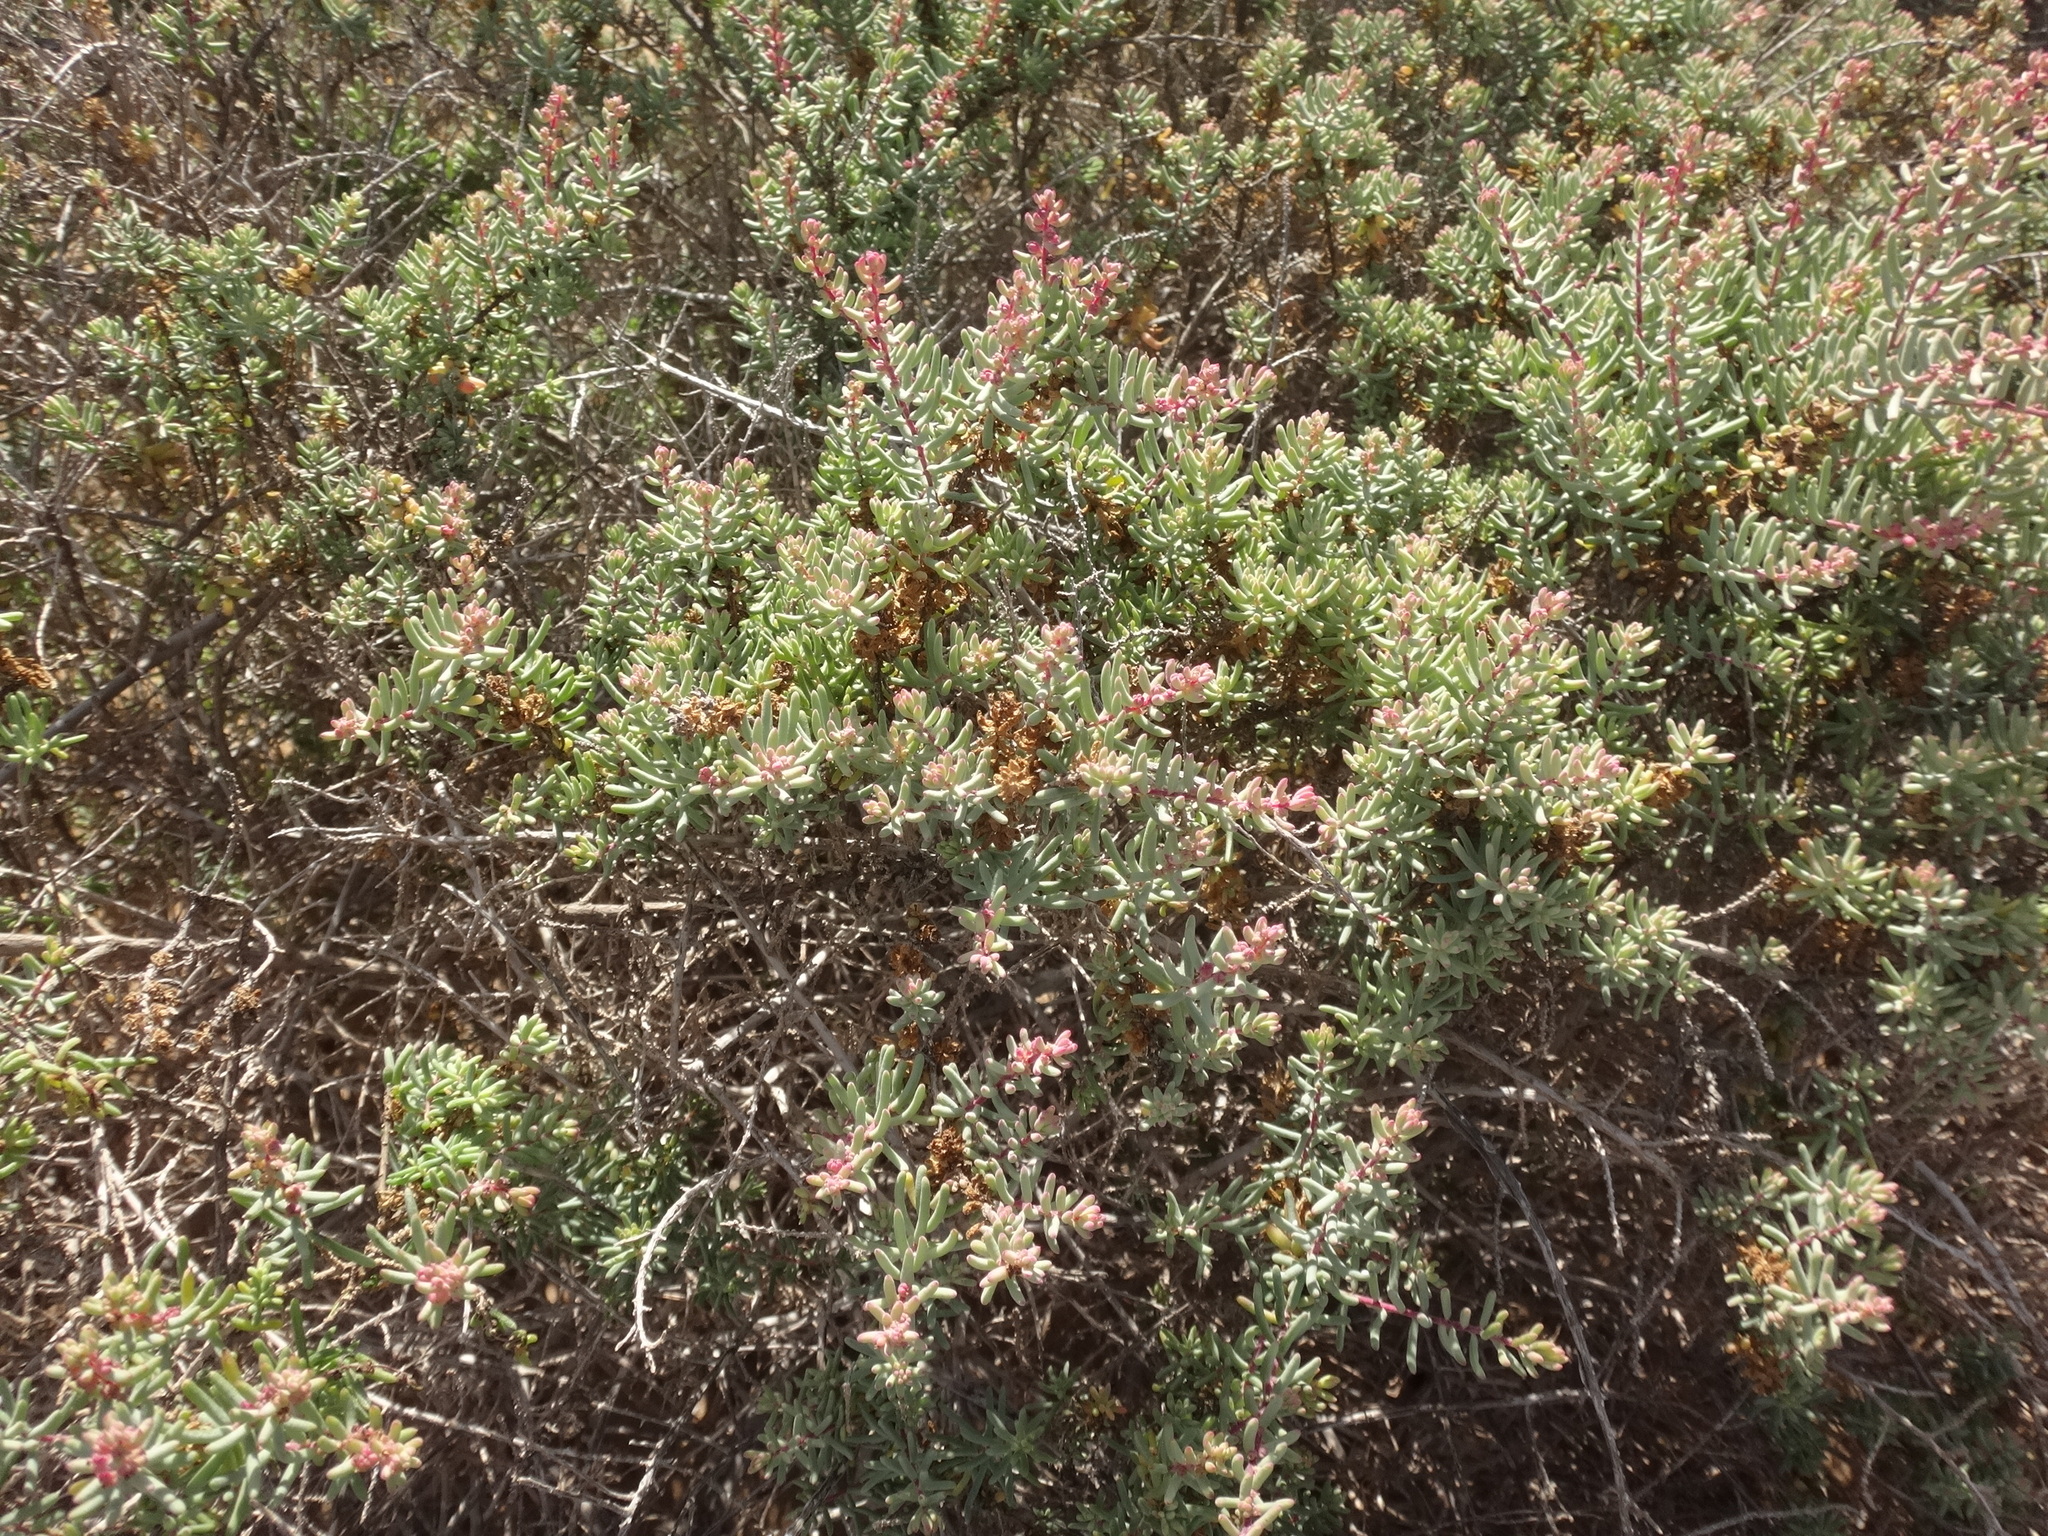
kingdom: Plantae
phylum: Tracheophyta
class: Magnoliopsida
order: Caryophyllales
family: Amaranthaceae
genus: Suaeda
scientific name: Suaeda ifniensis
